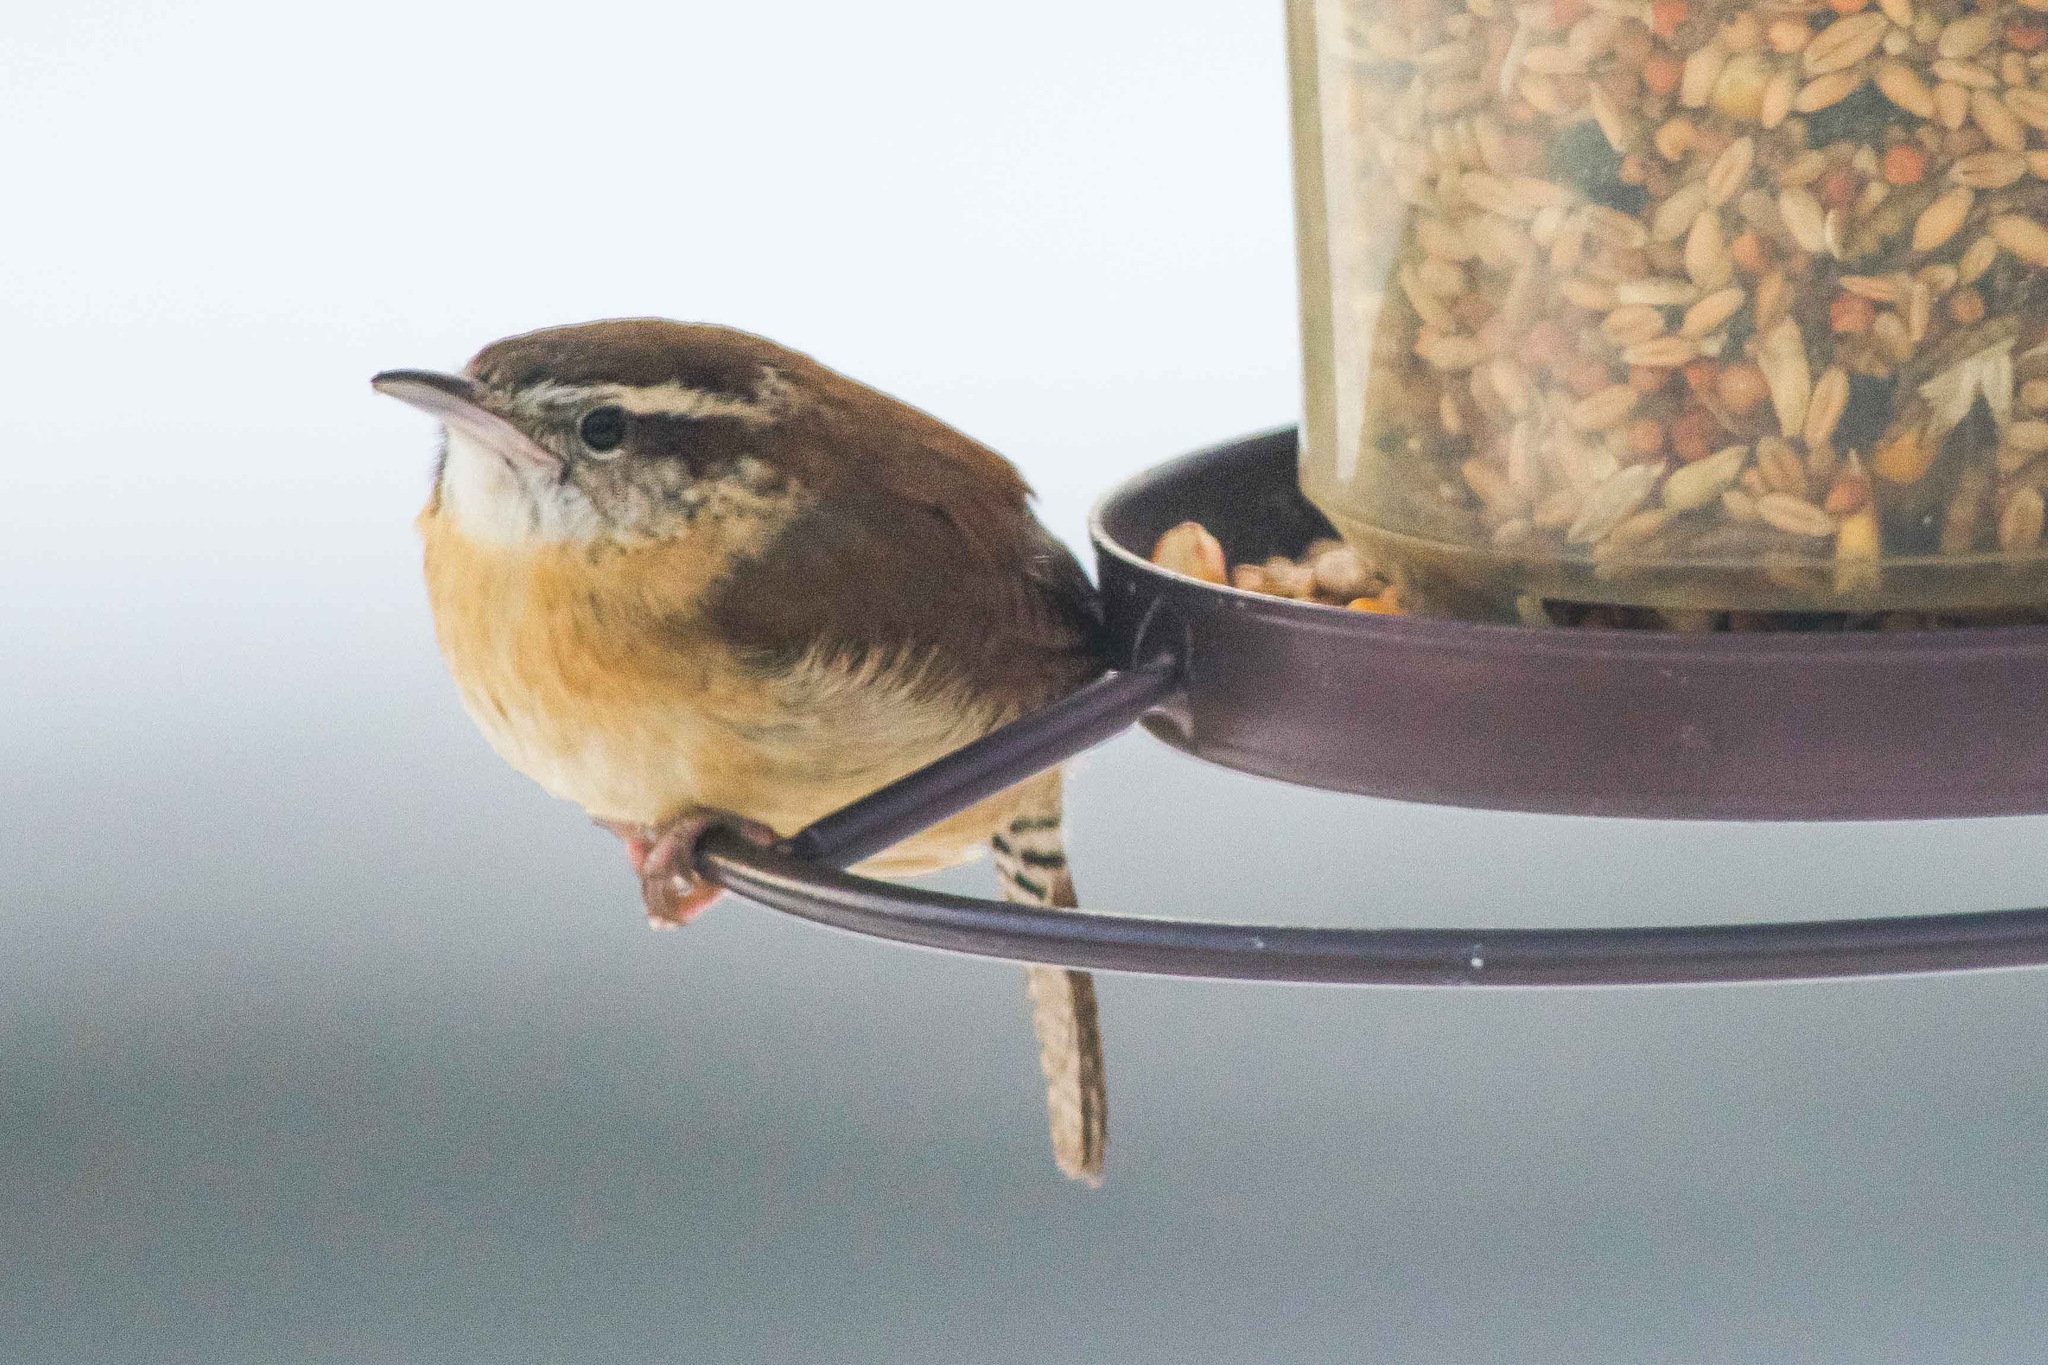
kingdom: Animalia
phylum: Chordata
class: Aves
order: Passeriformes
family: Troglodytidae
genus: Thryothorus
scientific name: Thryothorus ludovicianus
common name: Carolina wren
